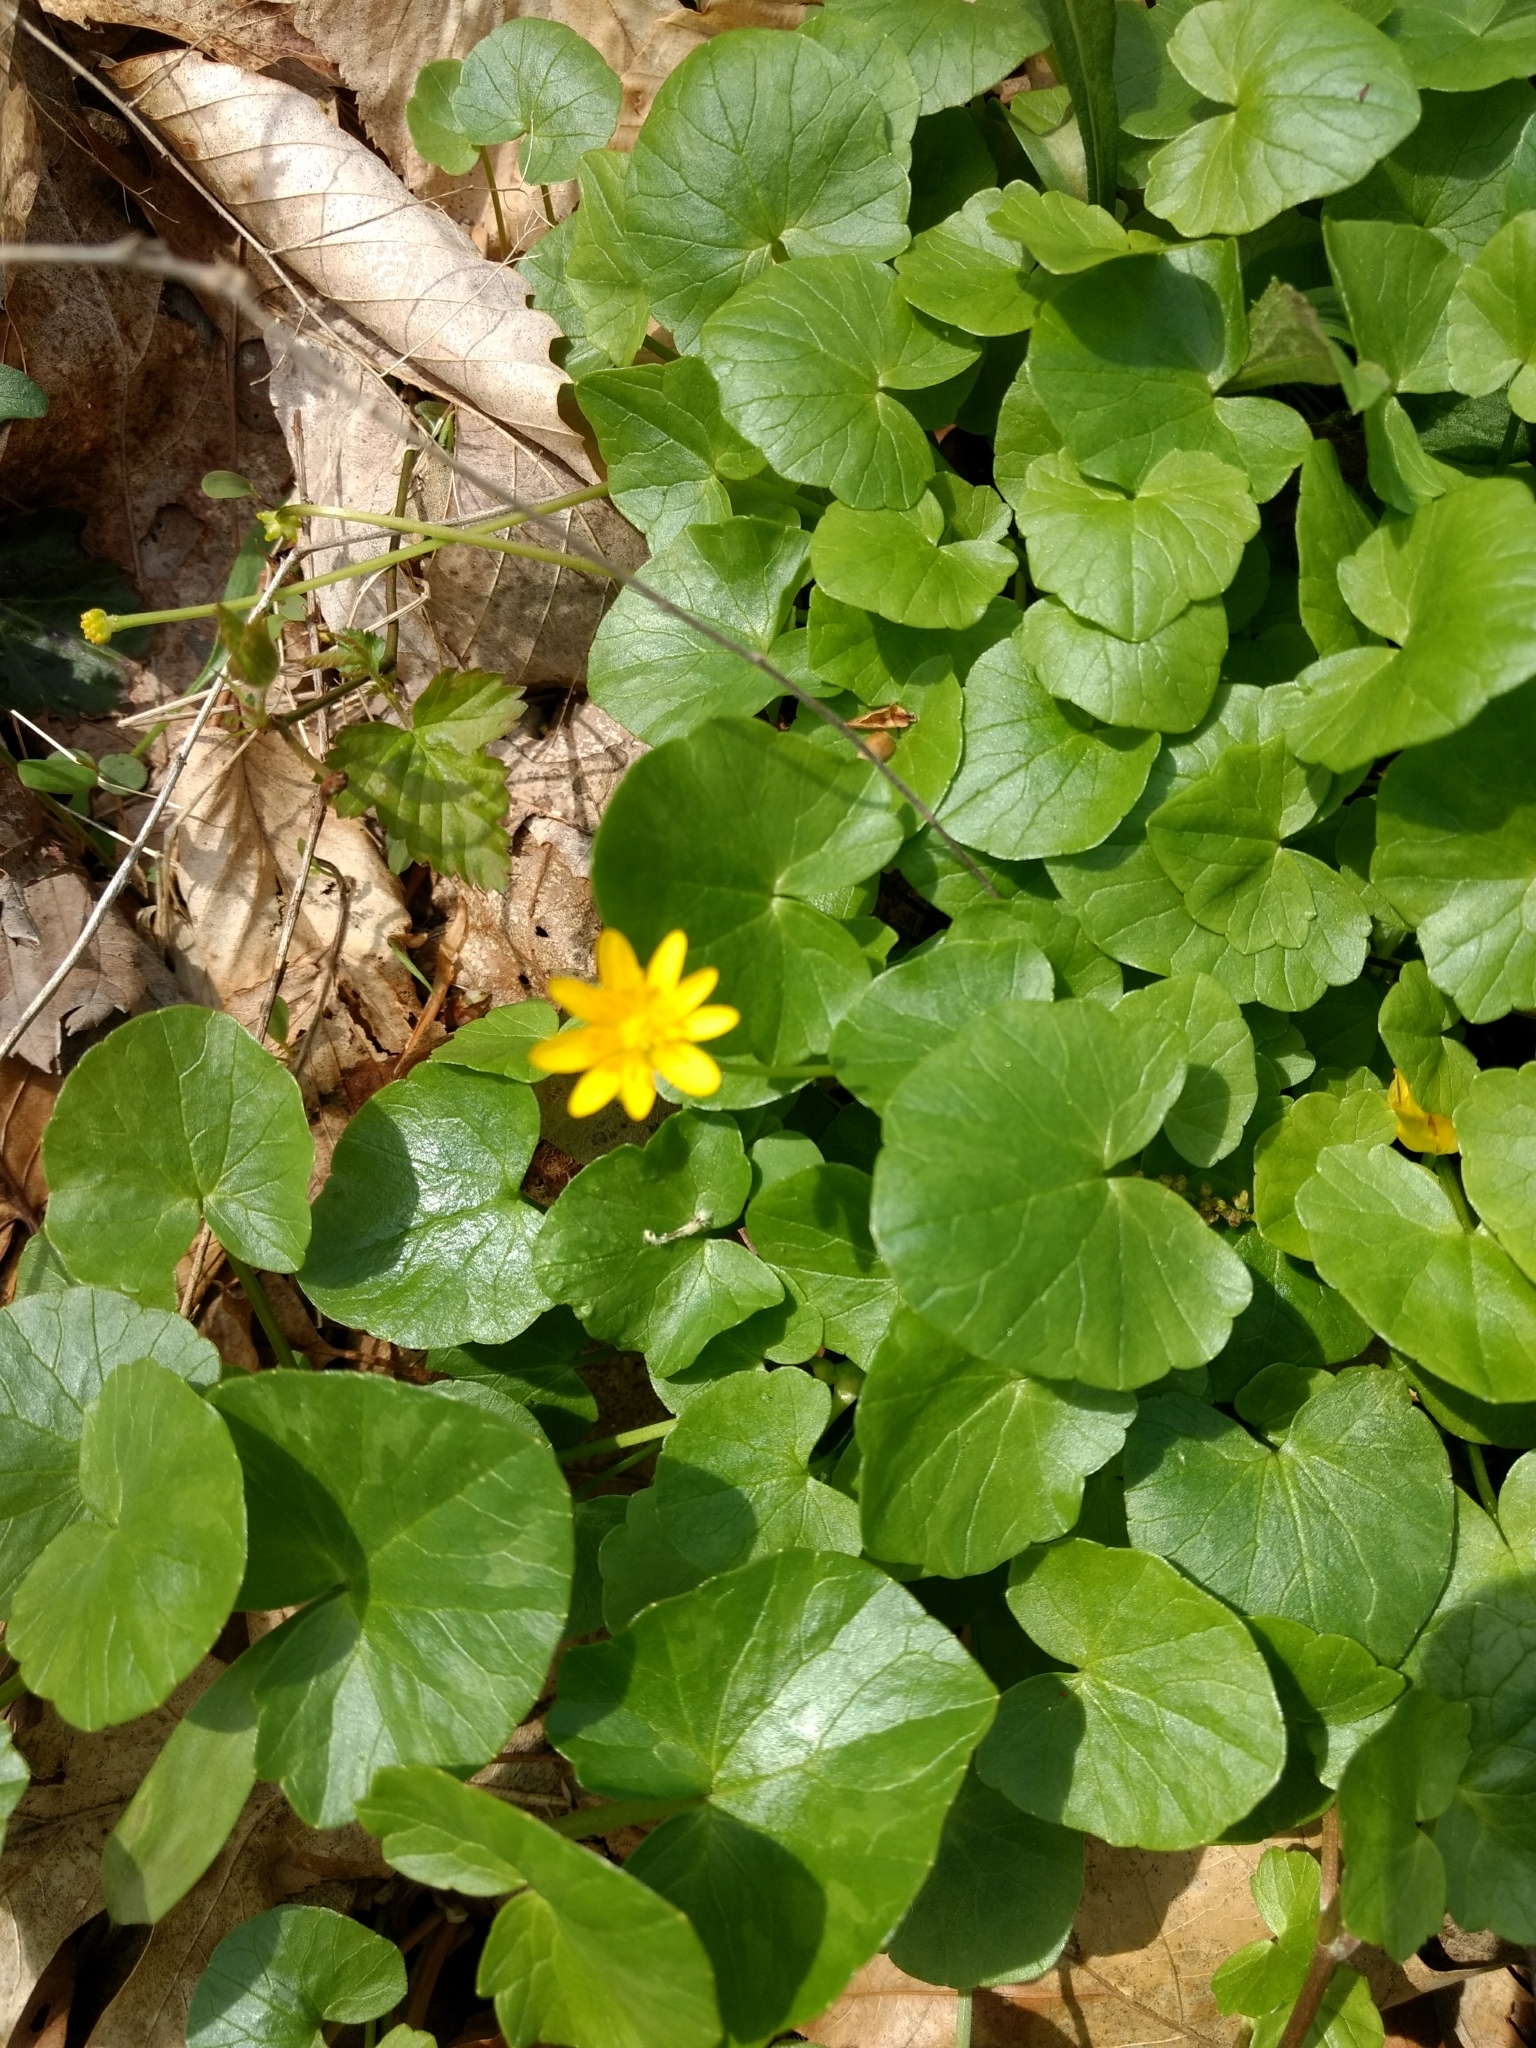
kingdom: Plantae
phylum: Tracheophyta
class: Magnoliopsida
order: Ranunculales
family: Ranunculaceae
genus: Ficaria
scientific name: Ficaria verna
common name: Lesser celandine
